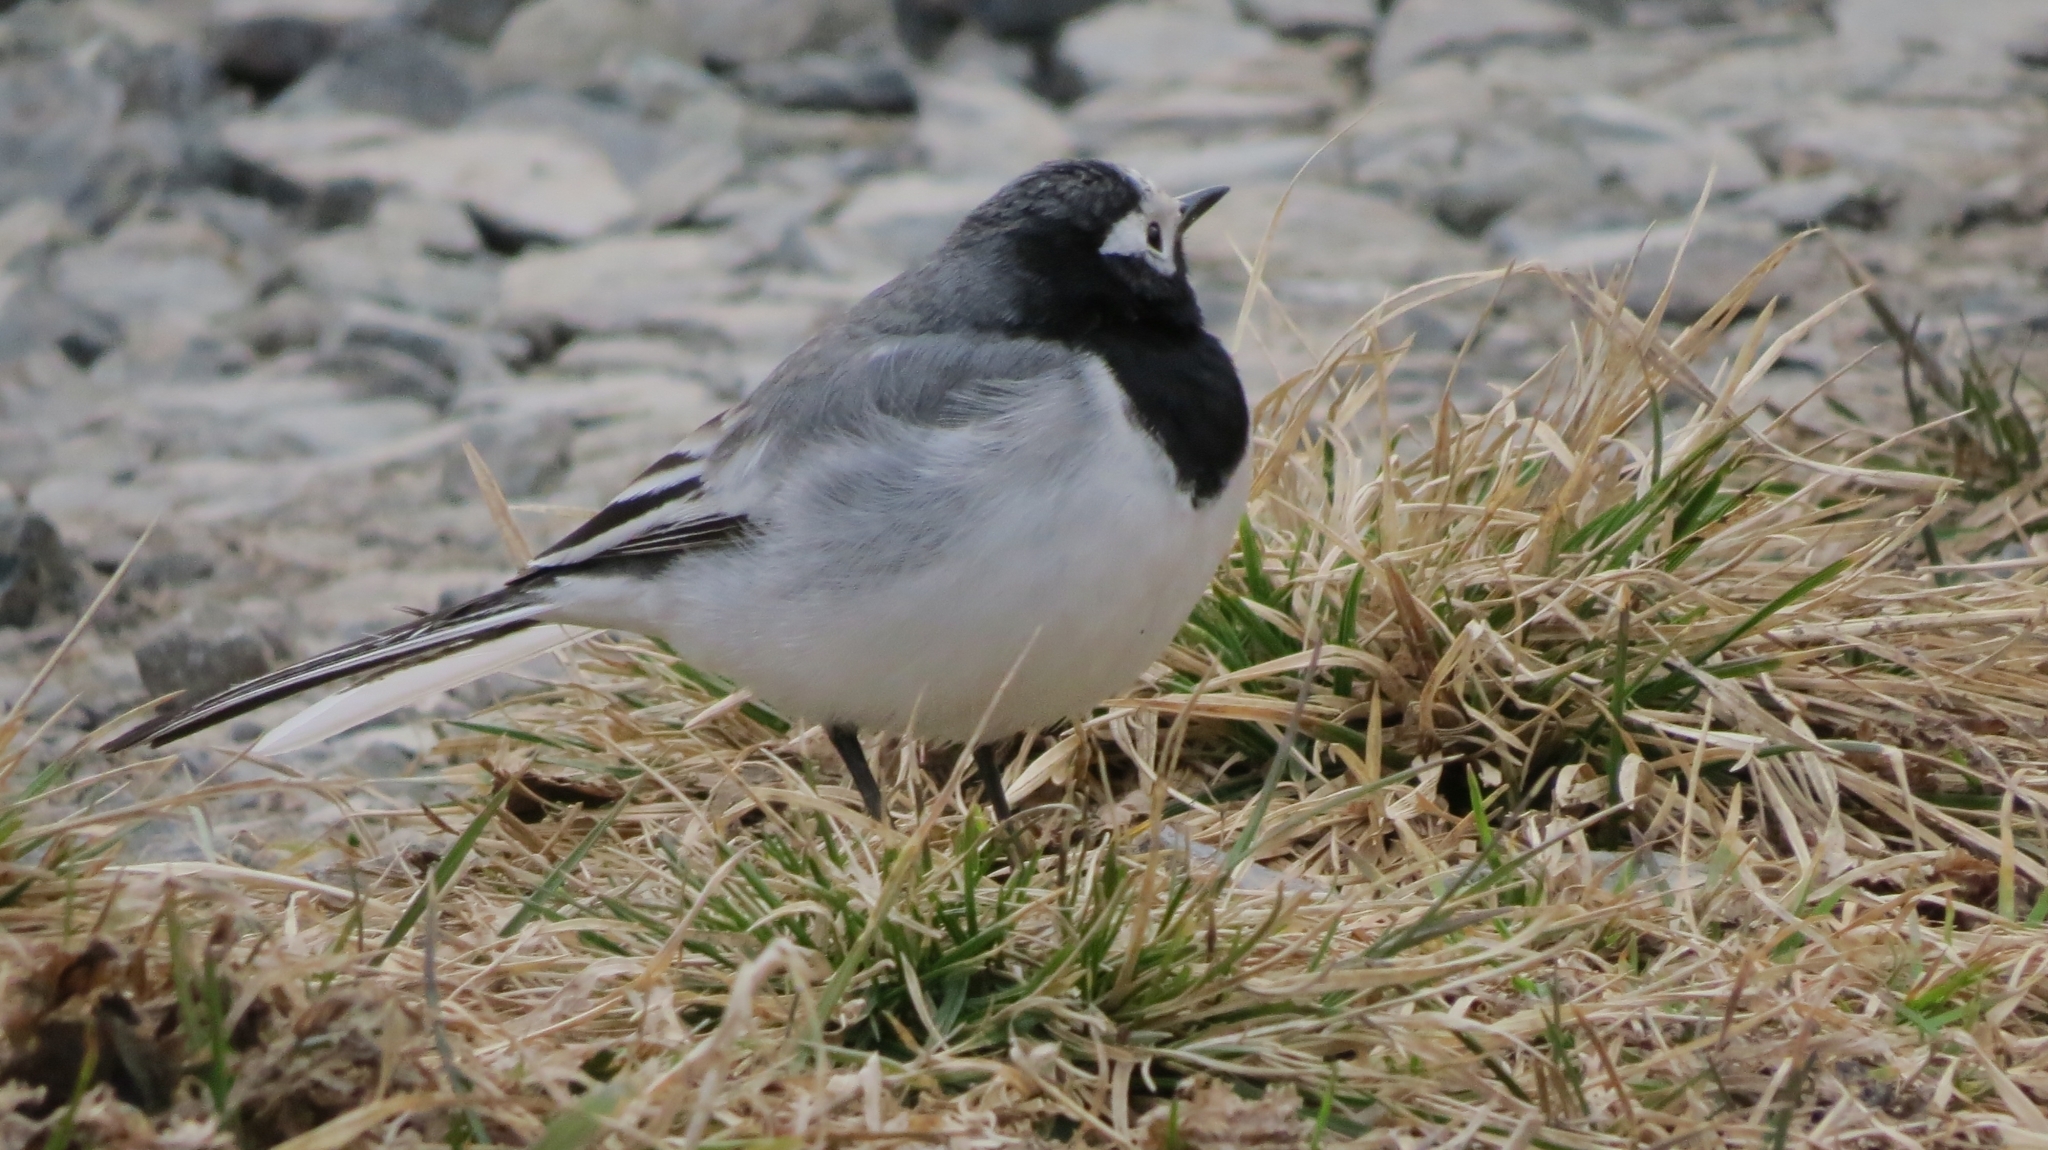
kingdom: Animalia
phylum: Chordata
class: Aves
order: Passeriformes
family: Motacillidae
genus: Motacilla
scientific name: Motacilla alba
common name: White wagtail
